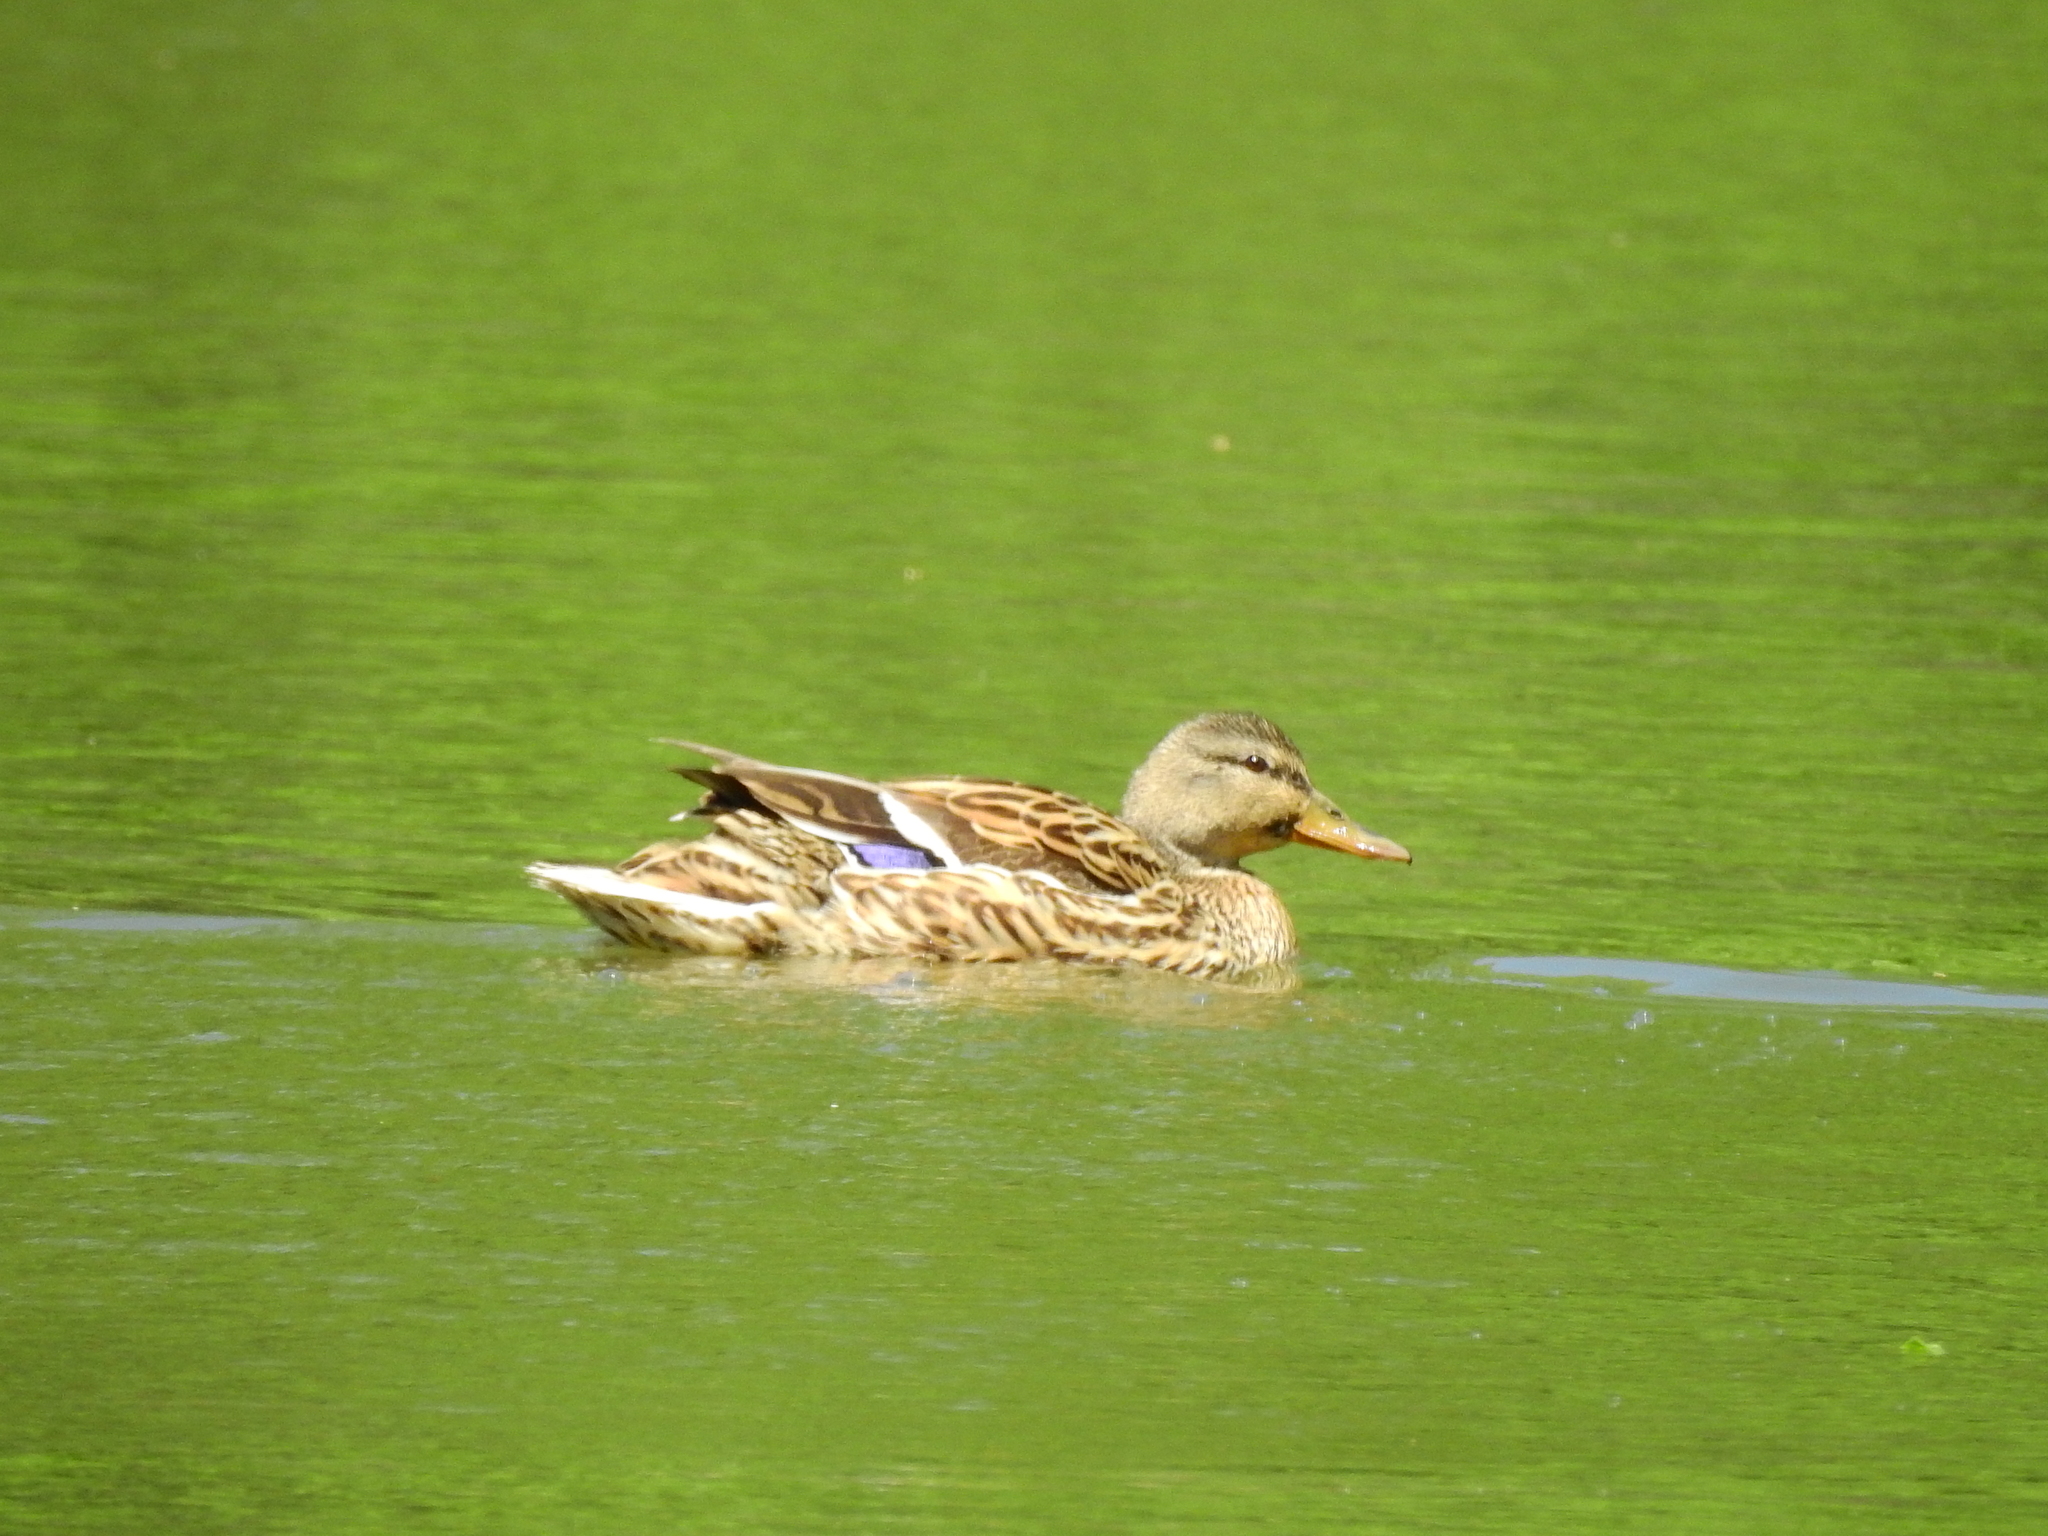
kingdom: Animalia
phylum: Chordata
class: Aves
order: Anseriformes
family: Anatidae
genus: Anas
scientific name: Anas platyrhynchos
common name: Mallard
